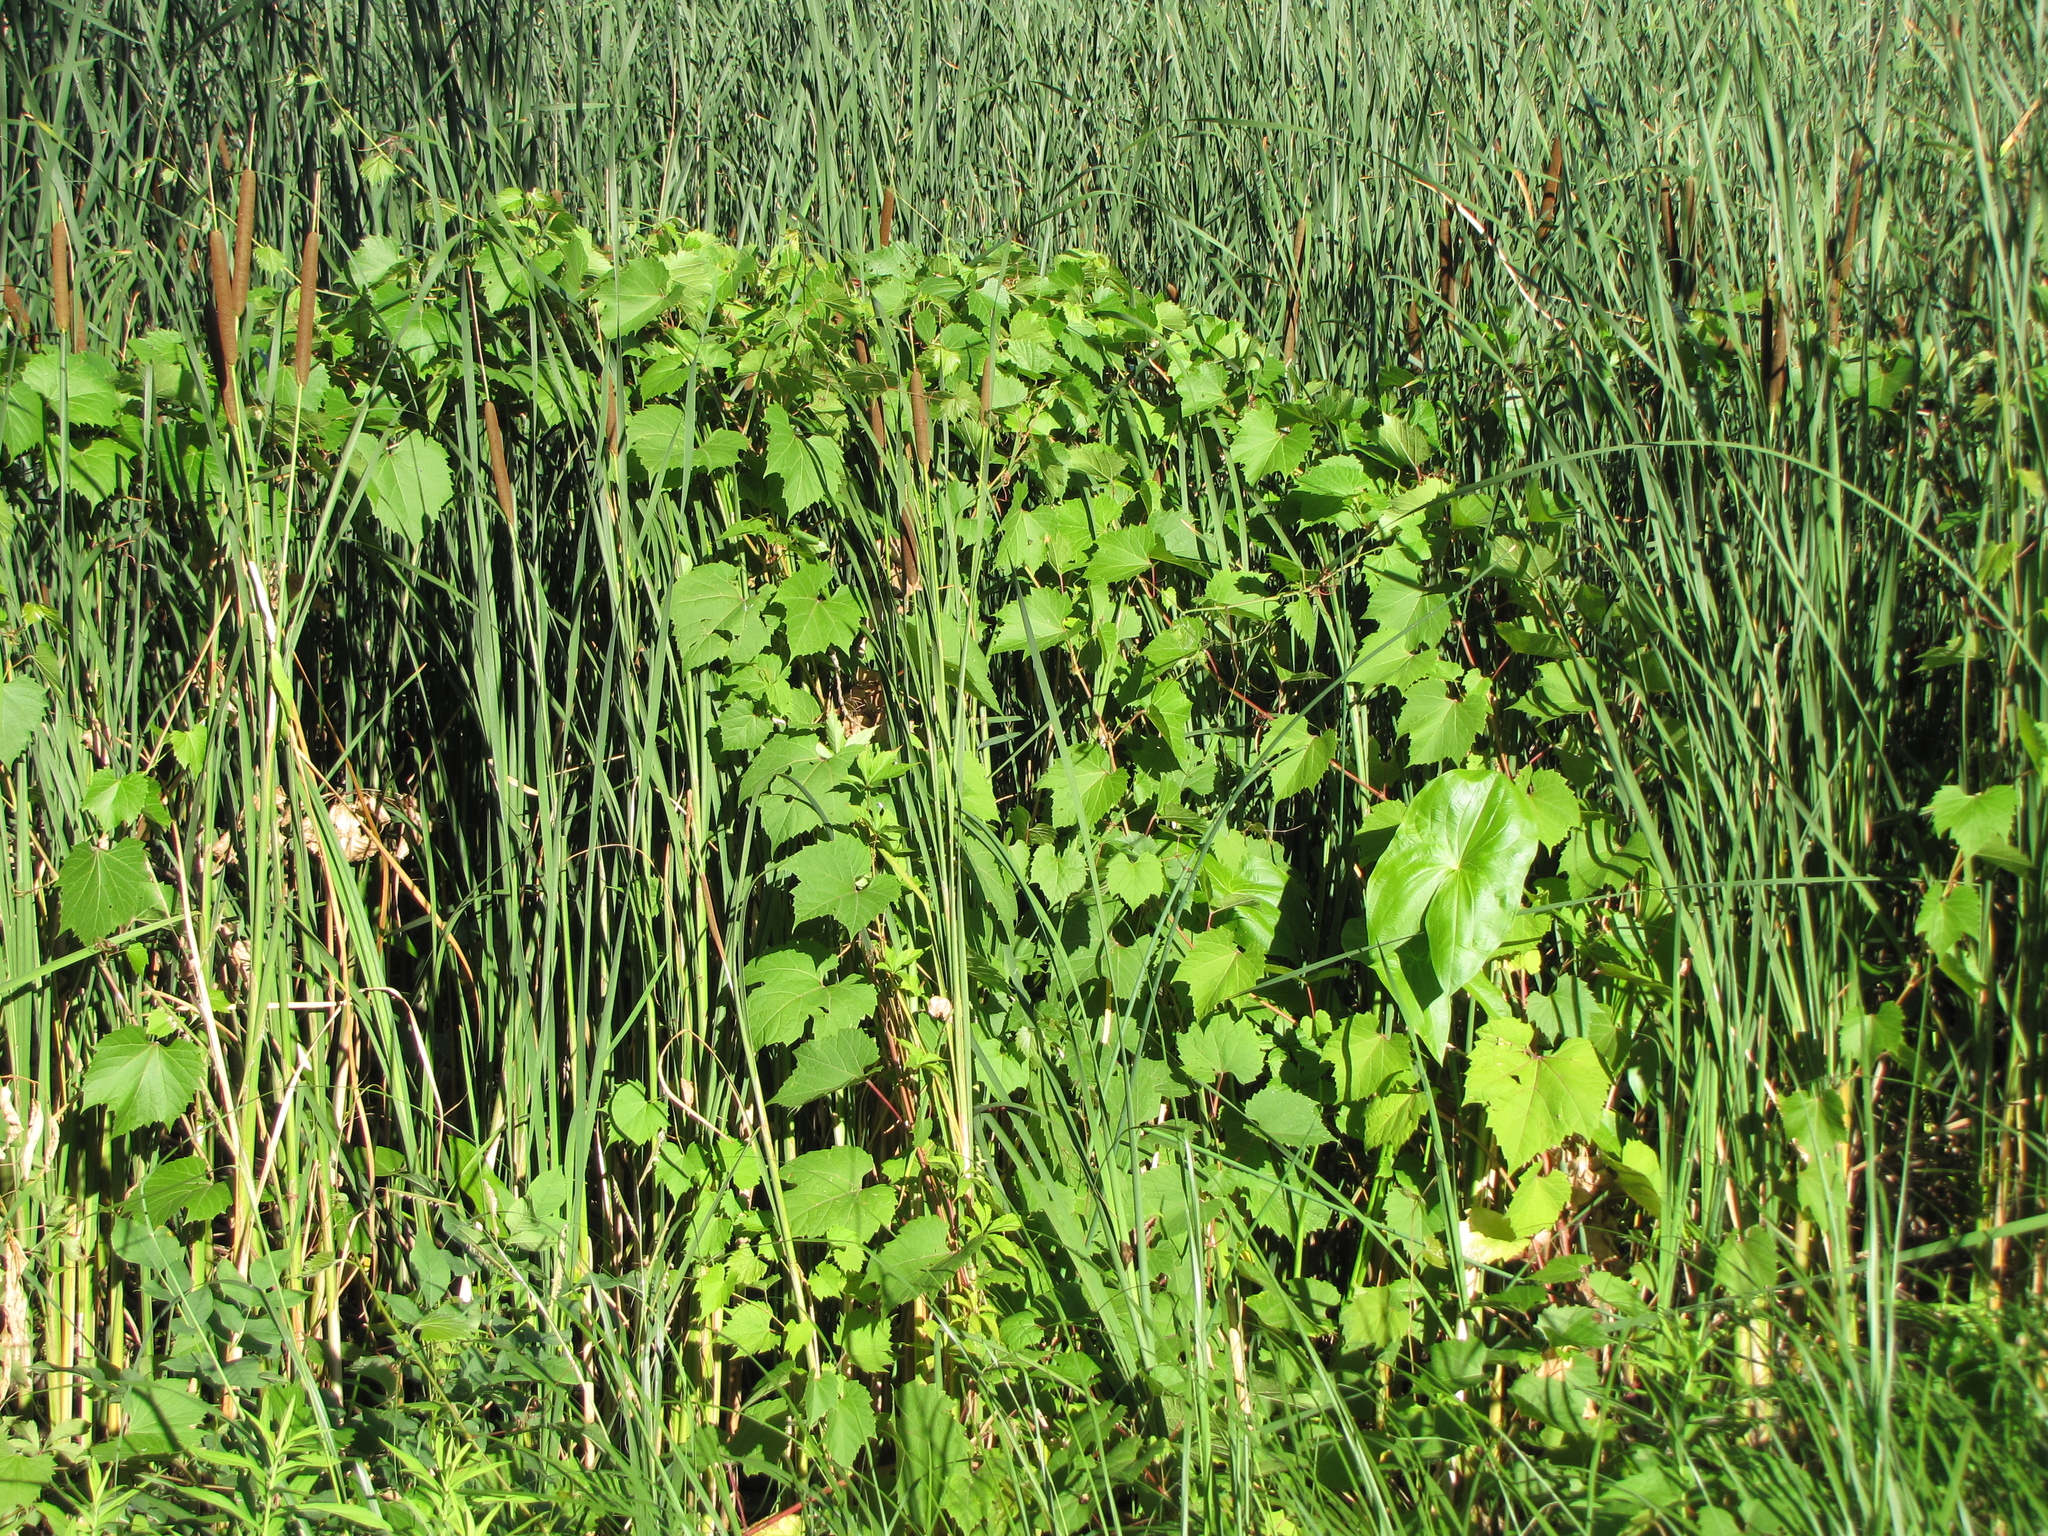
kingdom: Plantae
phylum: Tracheophyta
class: Magnoliopsida
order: Vitales
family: Vitaceae
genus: Vitis
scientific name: Vitis riparia
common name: Frost grape
